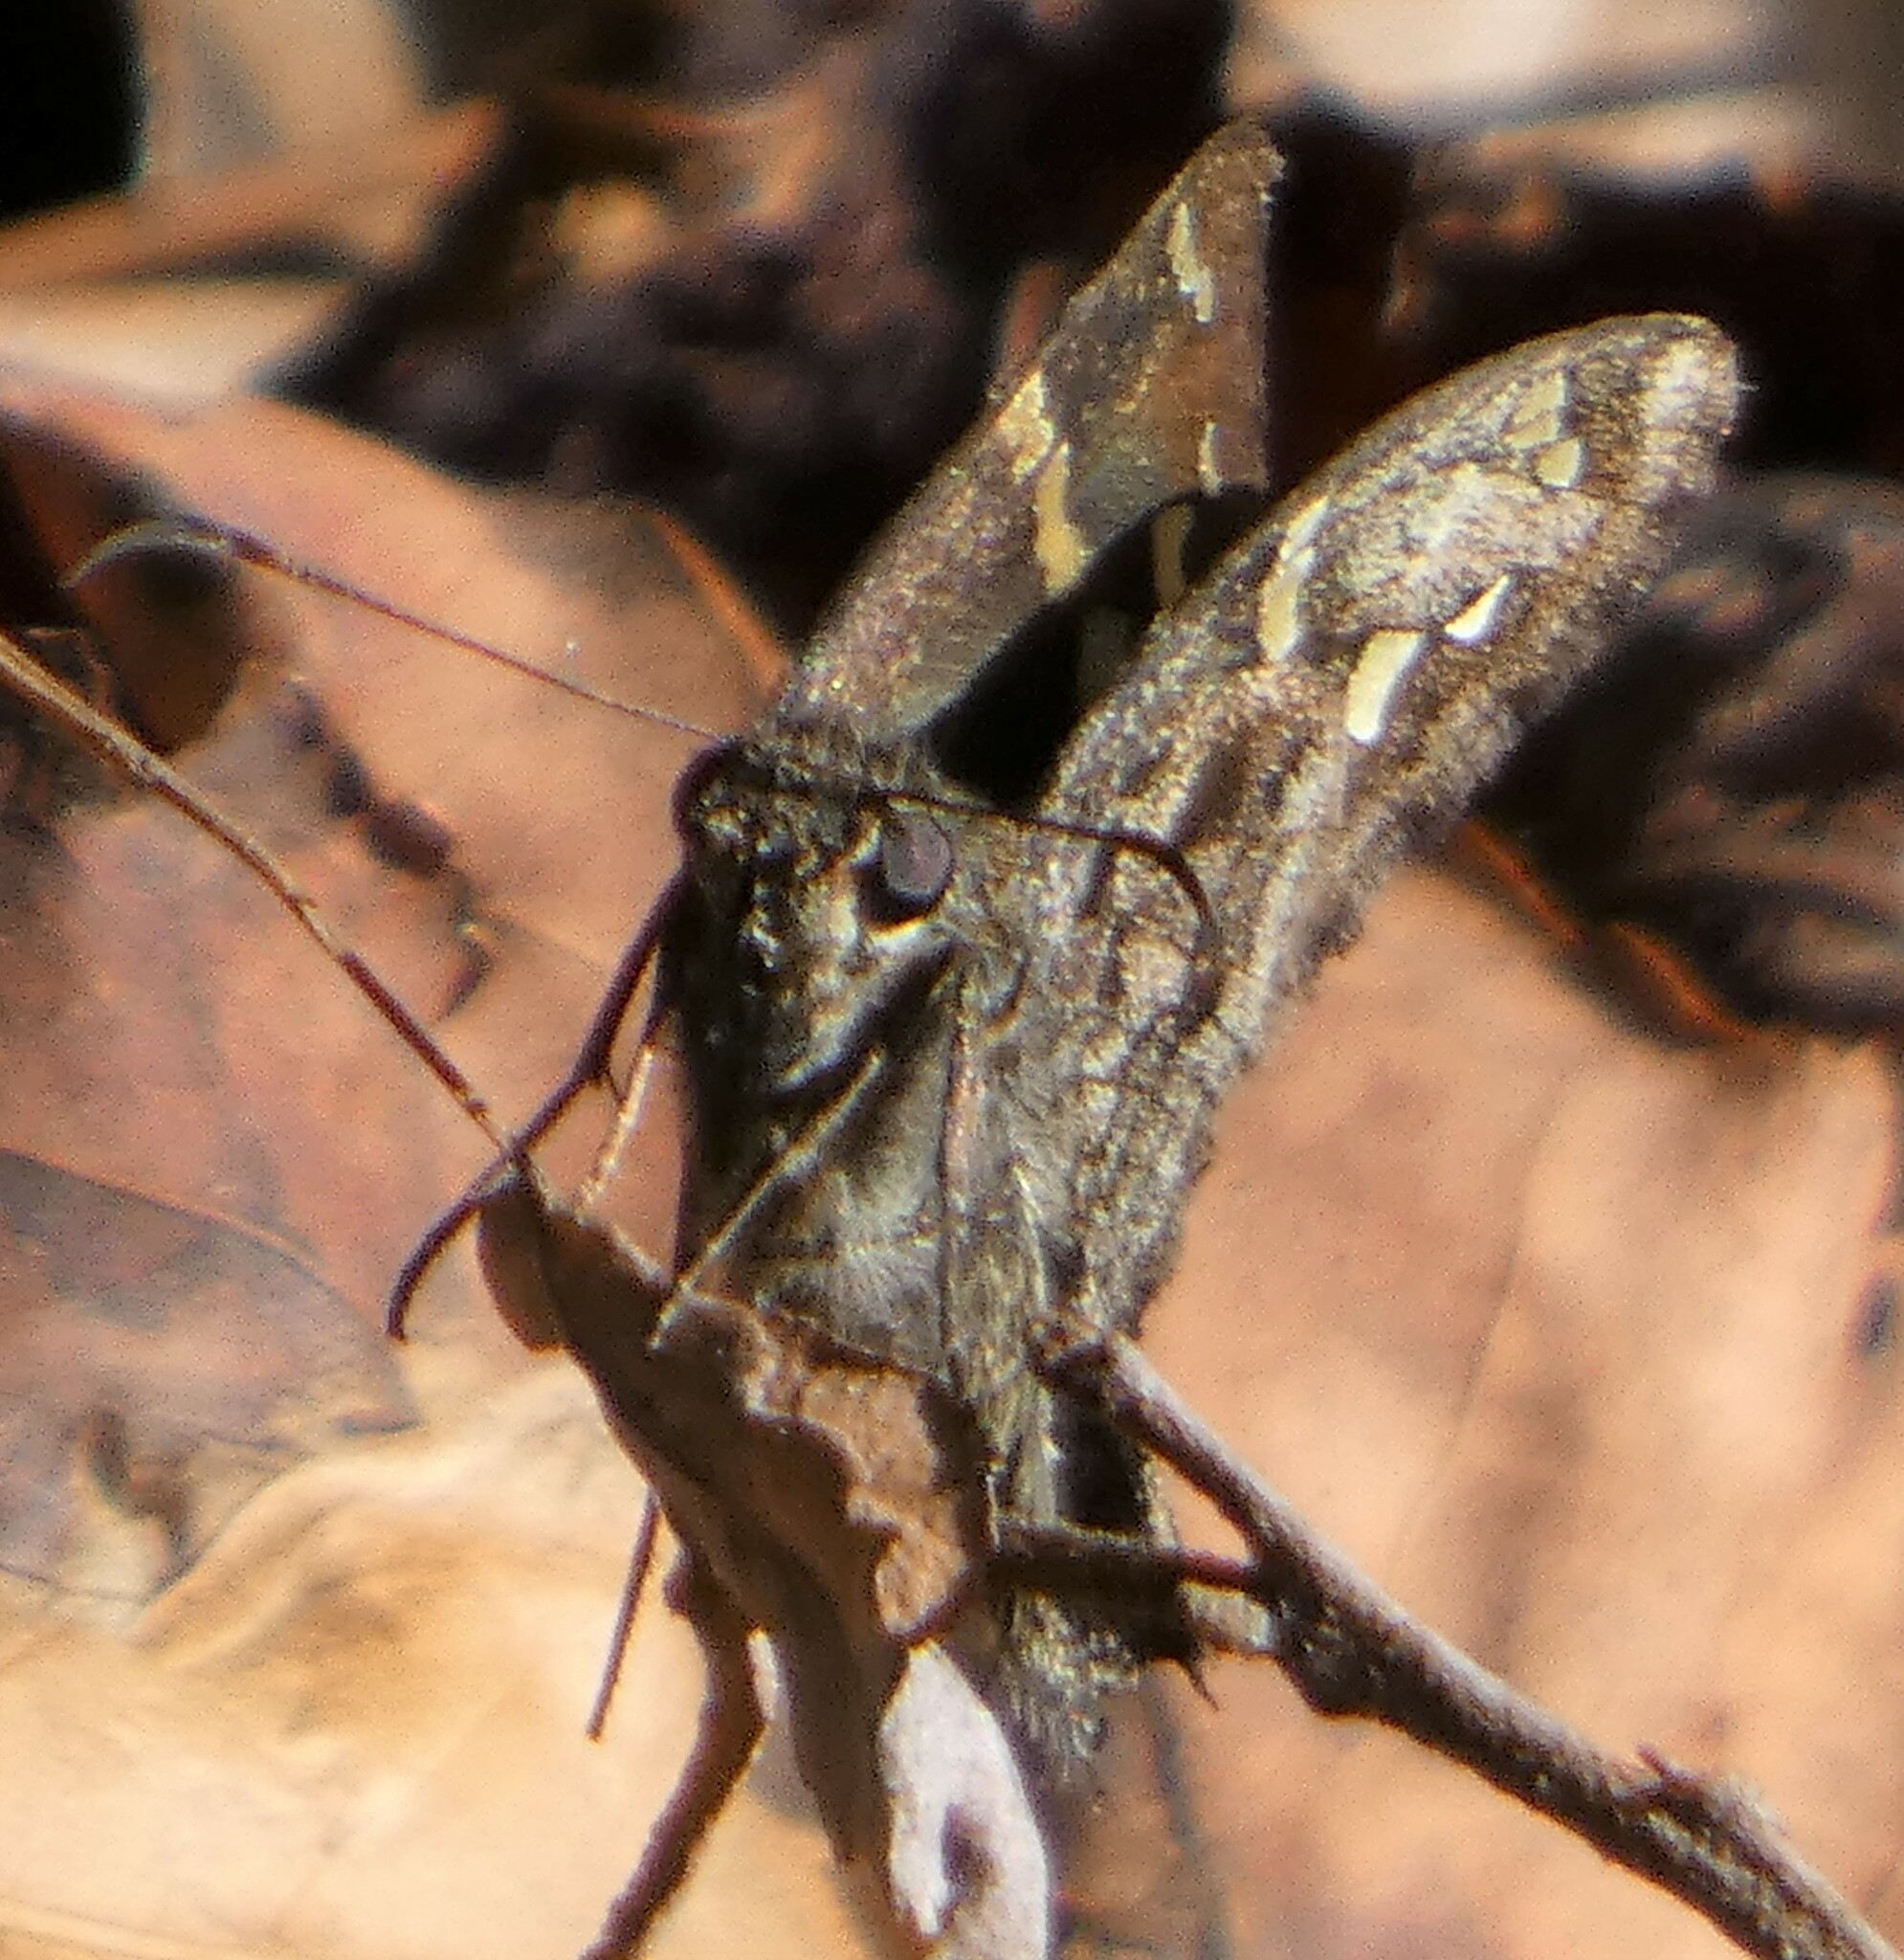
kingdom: Animalia
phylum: Arthropoda
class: Insecta
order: Lepidoptera
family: Hesperiidae
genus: Thorybes
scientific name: Thorybes
